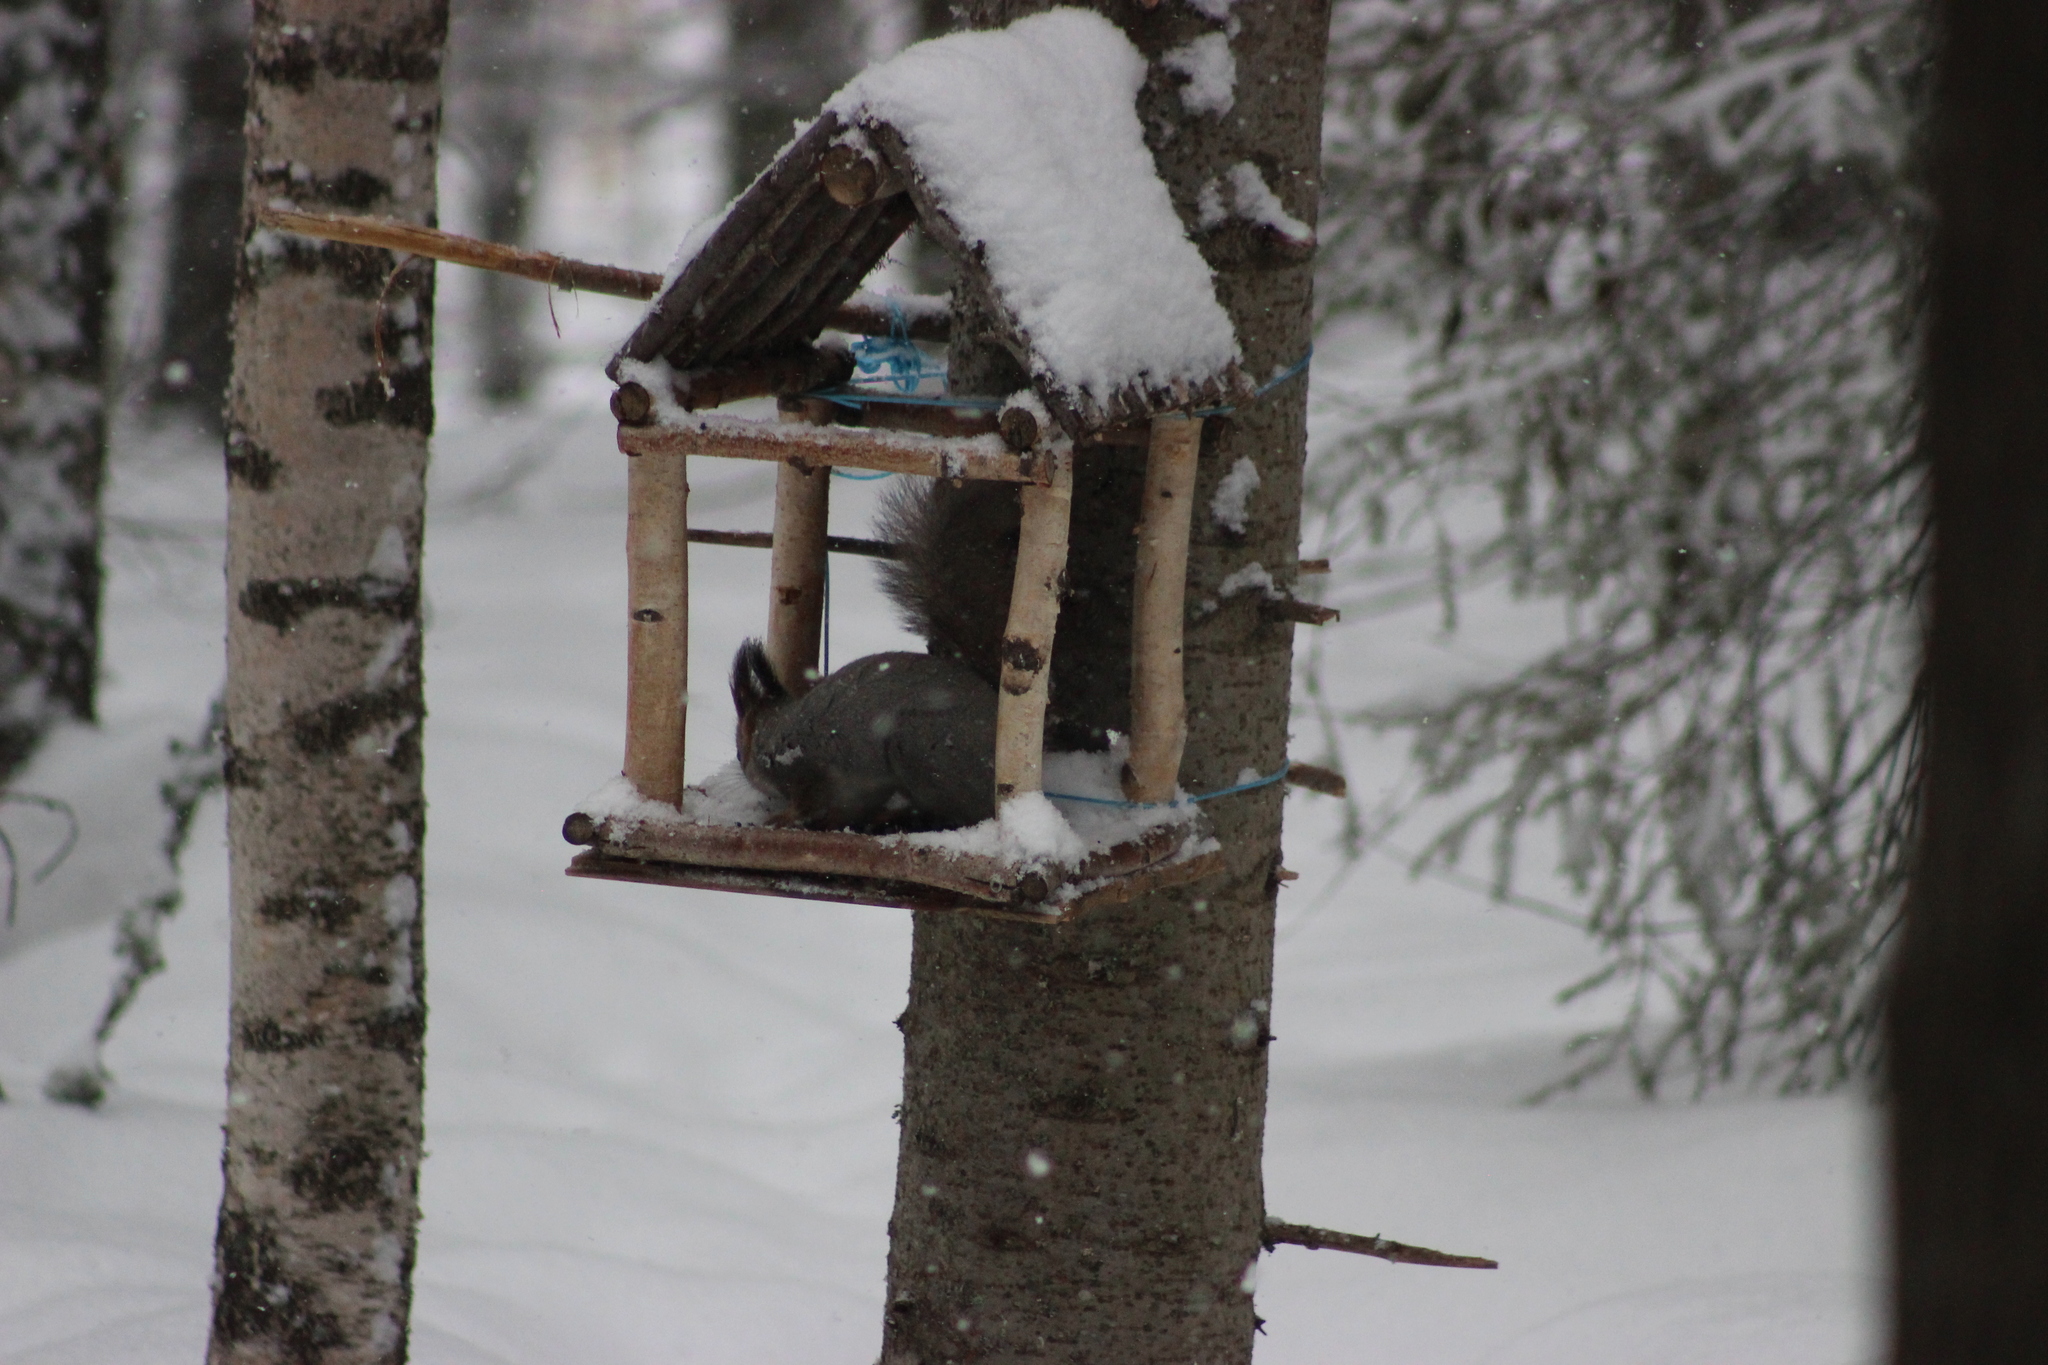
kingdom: Animalia
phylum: Chordata
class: Mammalia
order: Rodentia
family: Sciuridae
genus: Sciurus
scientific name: Sciurus vulgaris
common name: Eurasian red squirrel
